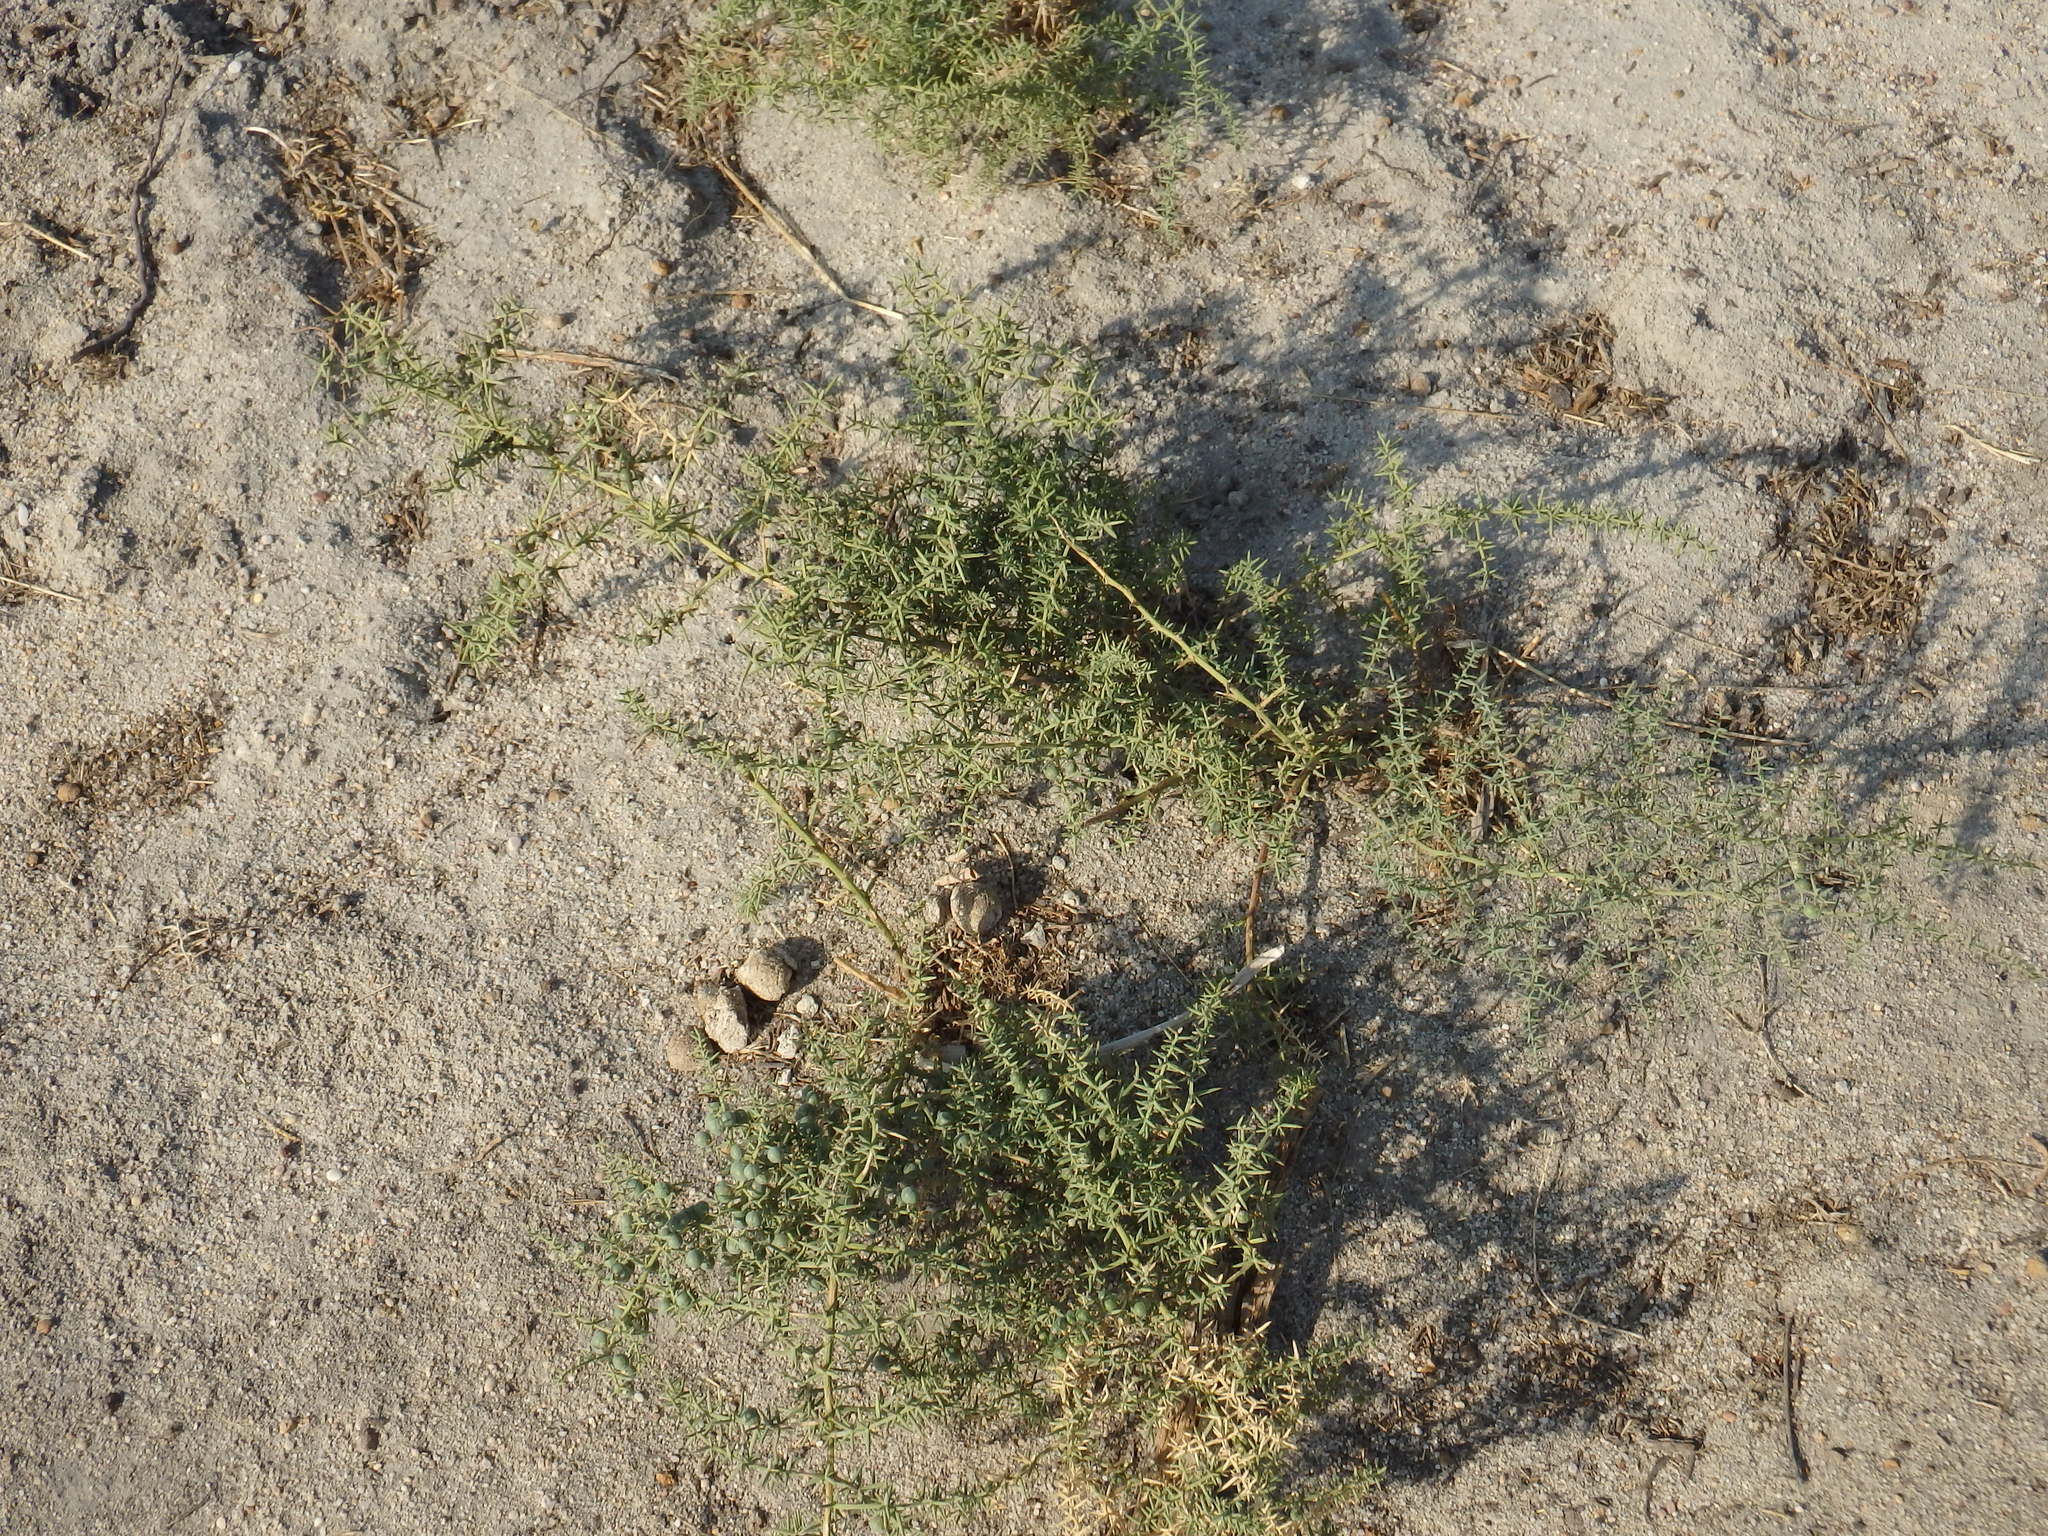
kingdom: Plantae
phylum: Tracheophyta
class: Liliopsida
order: Asparagales
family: Asparagaceae
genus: Asparagus
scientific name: Asparagus aphyllus
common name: Mediterranean asparagus
